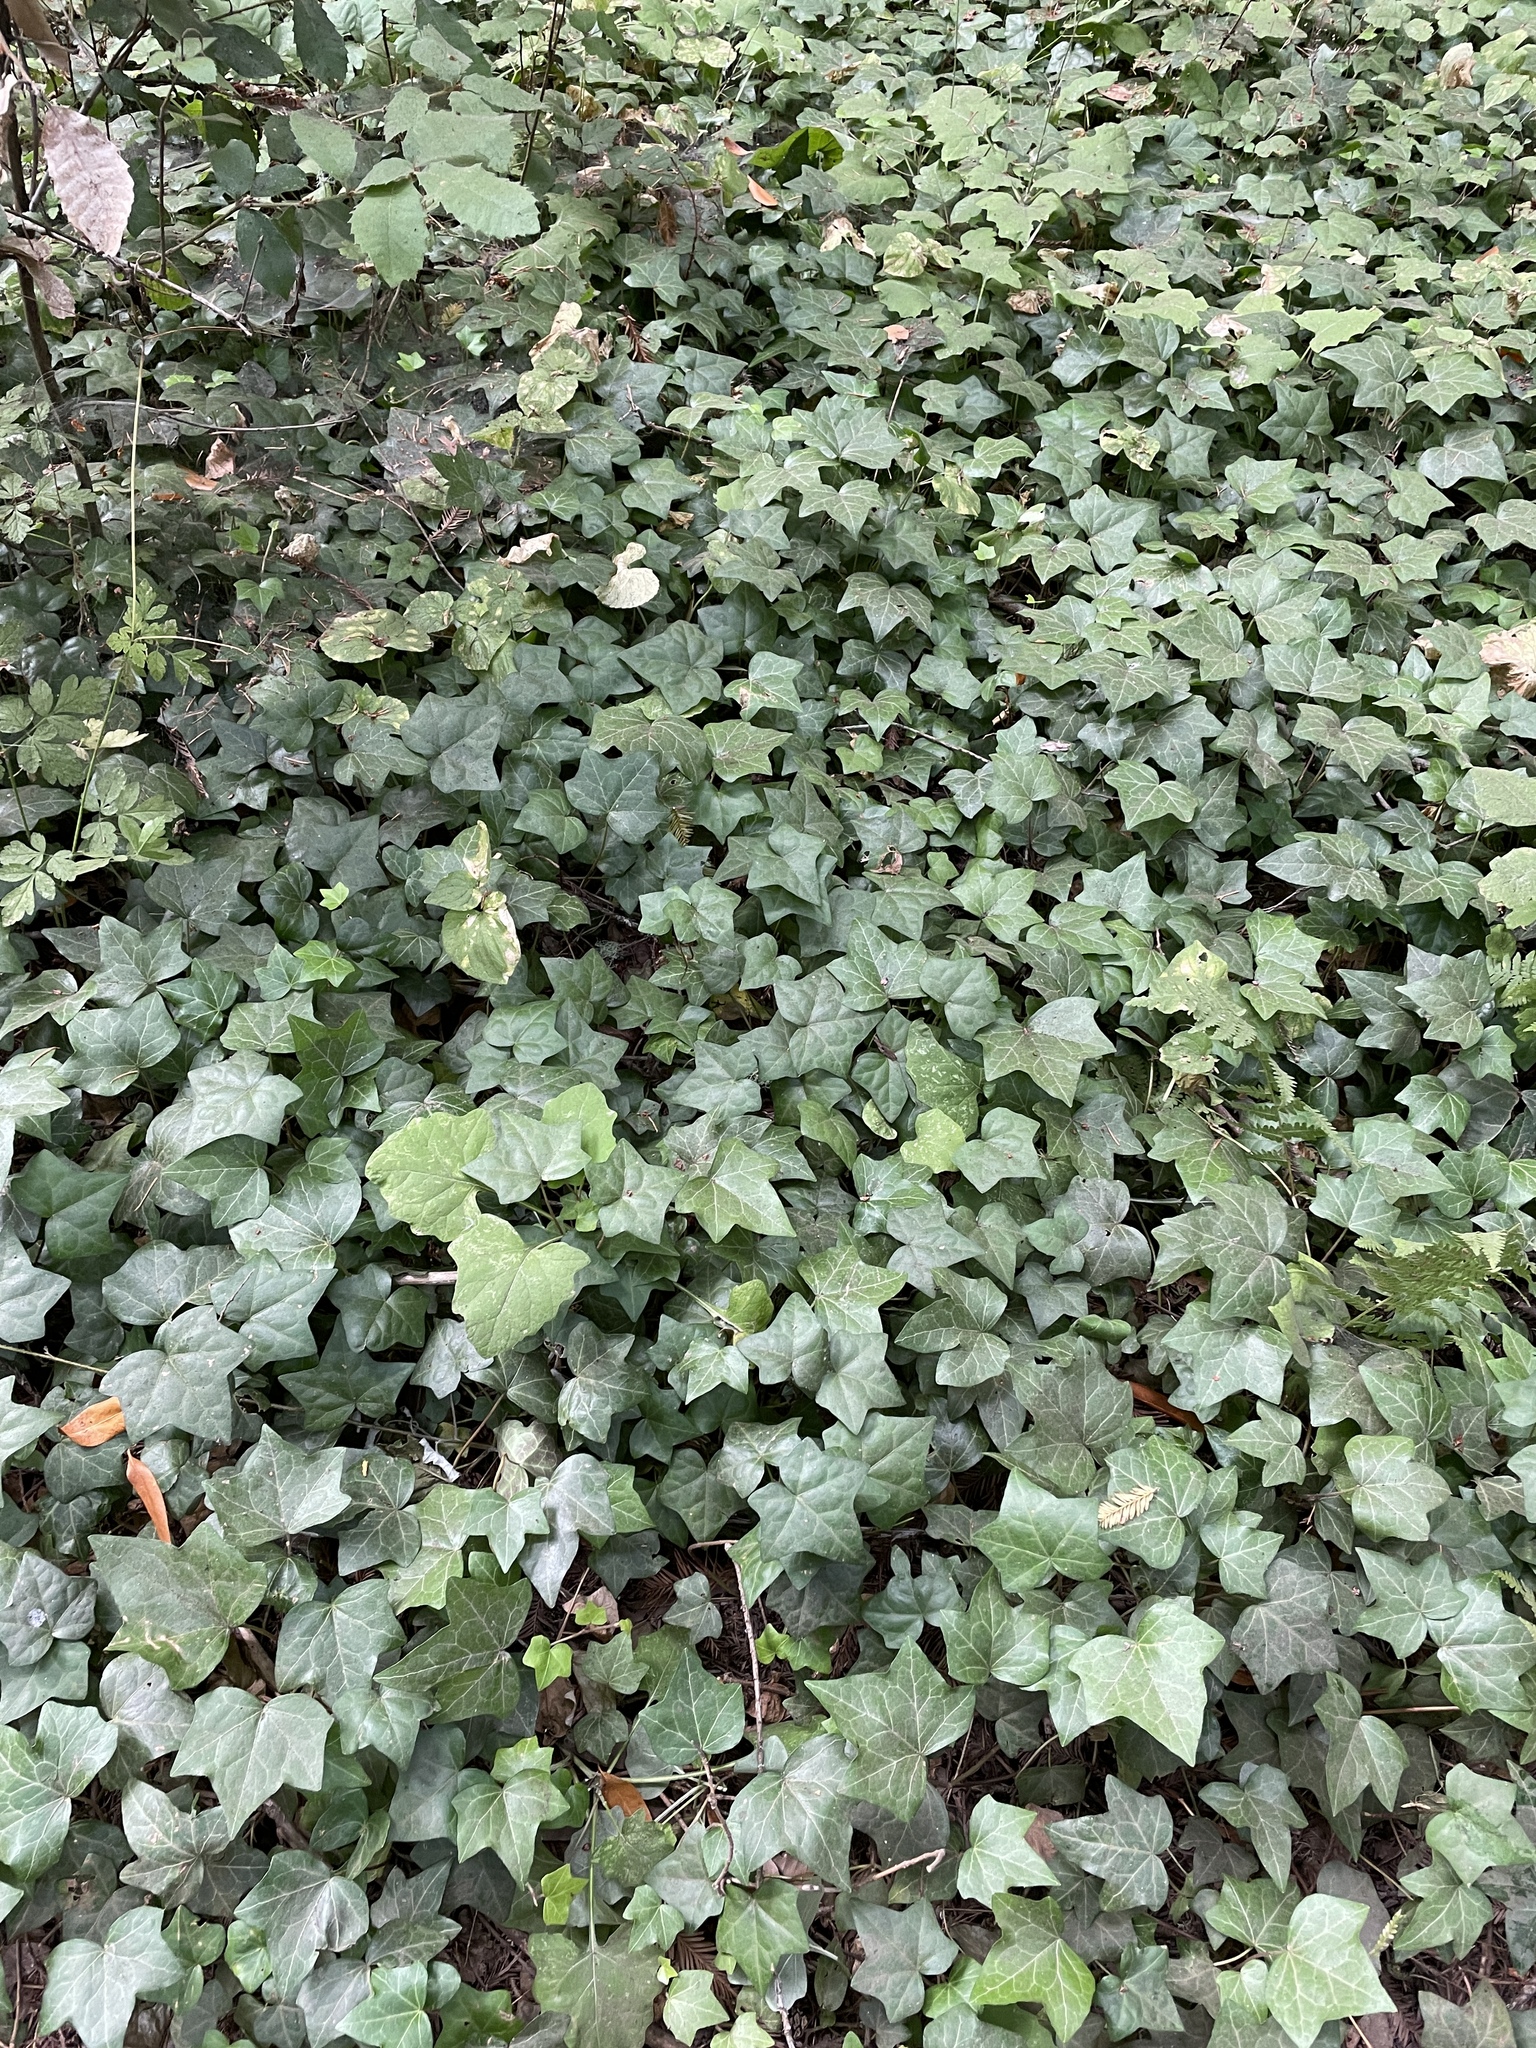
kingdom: Plantae
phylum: Tracheophyta
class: Magnoliopsida
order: Apiales
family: Araliaceae
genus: Hedera
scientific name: Hedera helix
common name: Ivy
